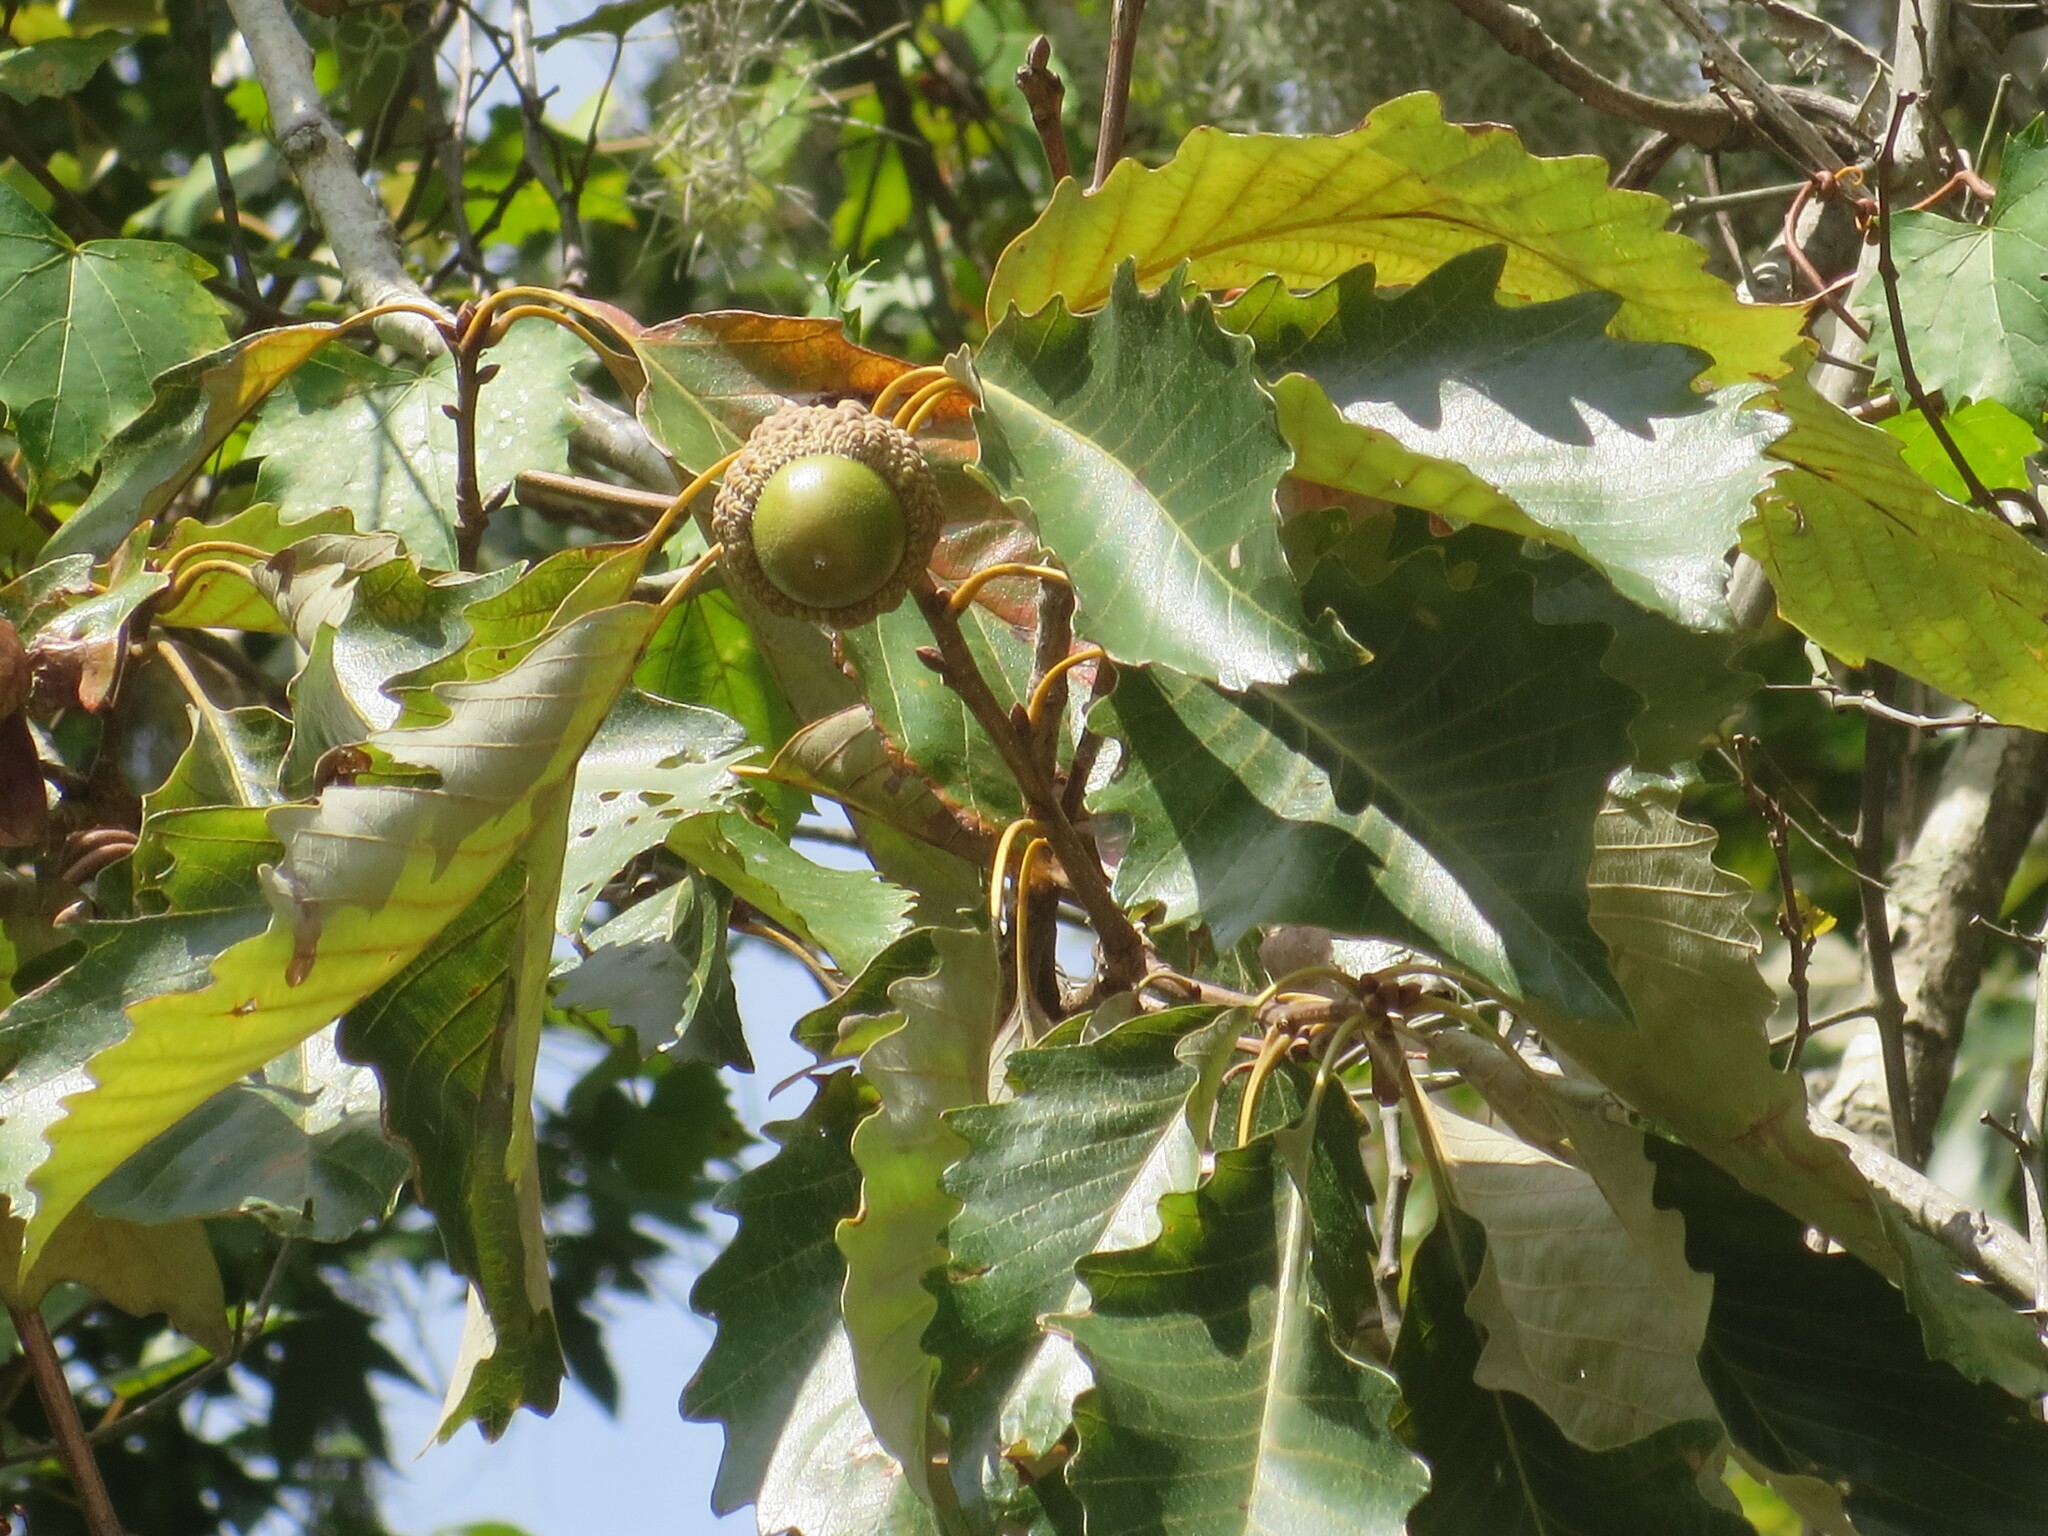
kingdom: Plantae
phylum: Tracheophyta
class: Magnoliopsida
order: Fagales
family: Fagaceae
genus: Quercus
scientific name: Quercus michauxii
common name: Swamp chestnut oak
